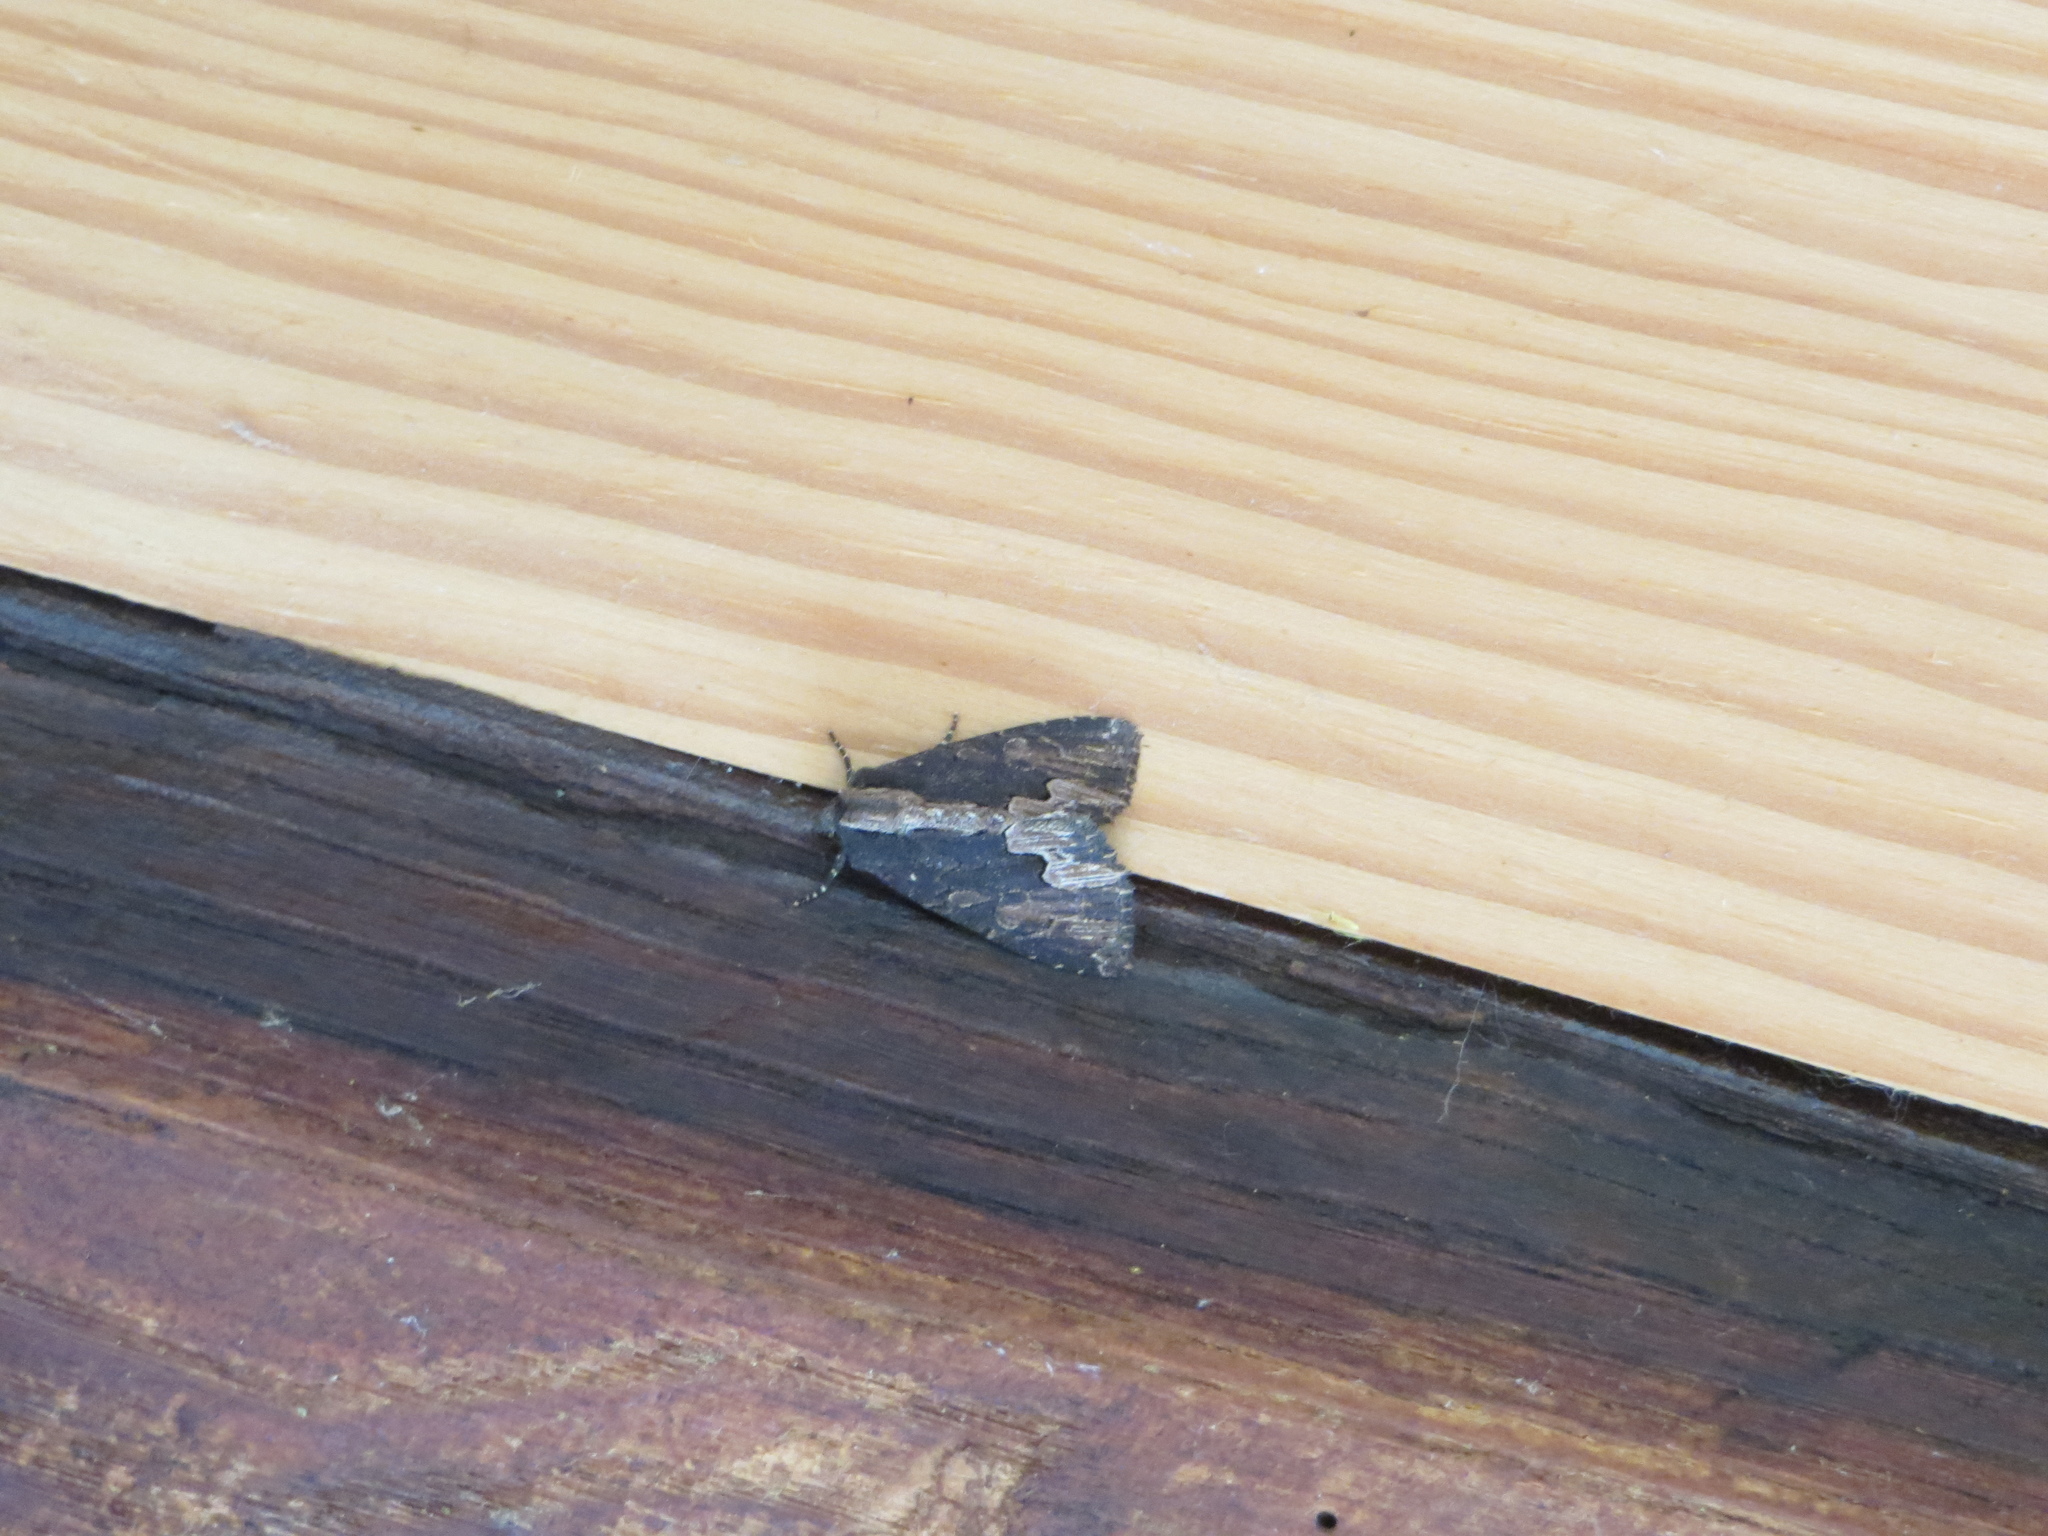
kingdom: Animalia
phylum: Arthropoda
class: Insecta
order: Lepidoptera
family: Noctuidae
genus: Dypterygia
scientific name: Dypterygia scabriuscula
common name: Bird's wing
